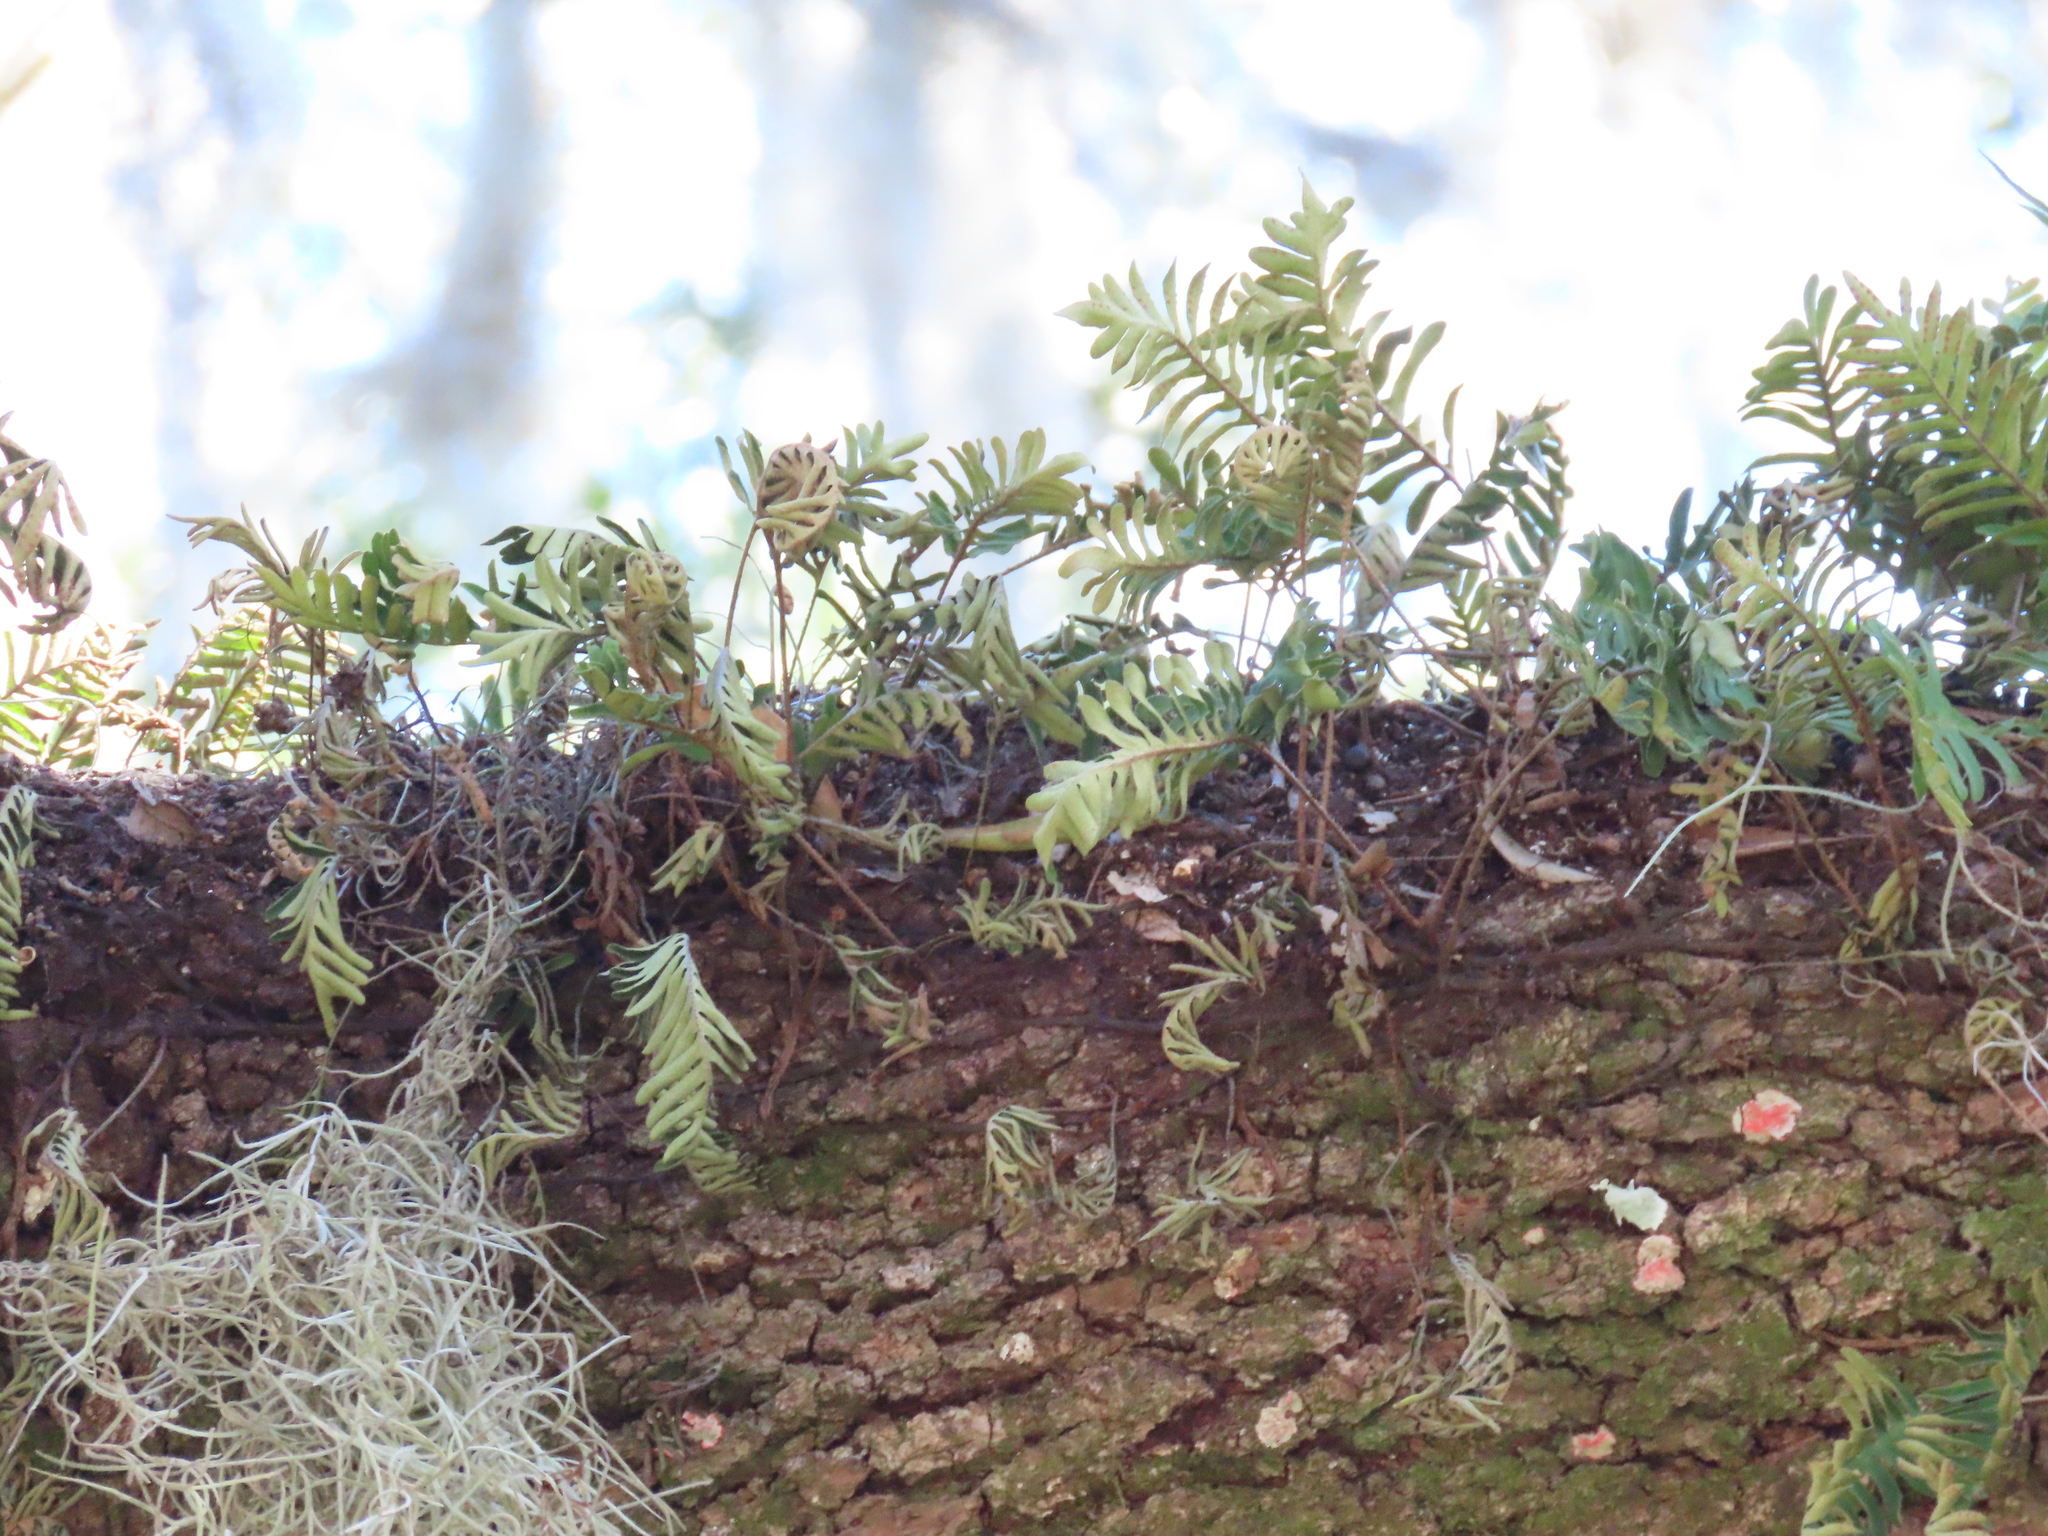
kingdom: Plantae
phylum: Tracheophyta
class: Polypodiopsida
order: Polypodiales
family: Polypodiaceae
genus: Pleopeltis
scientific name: Pleopeltis michauxiana
